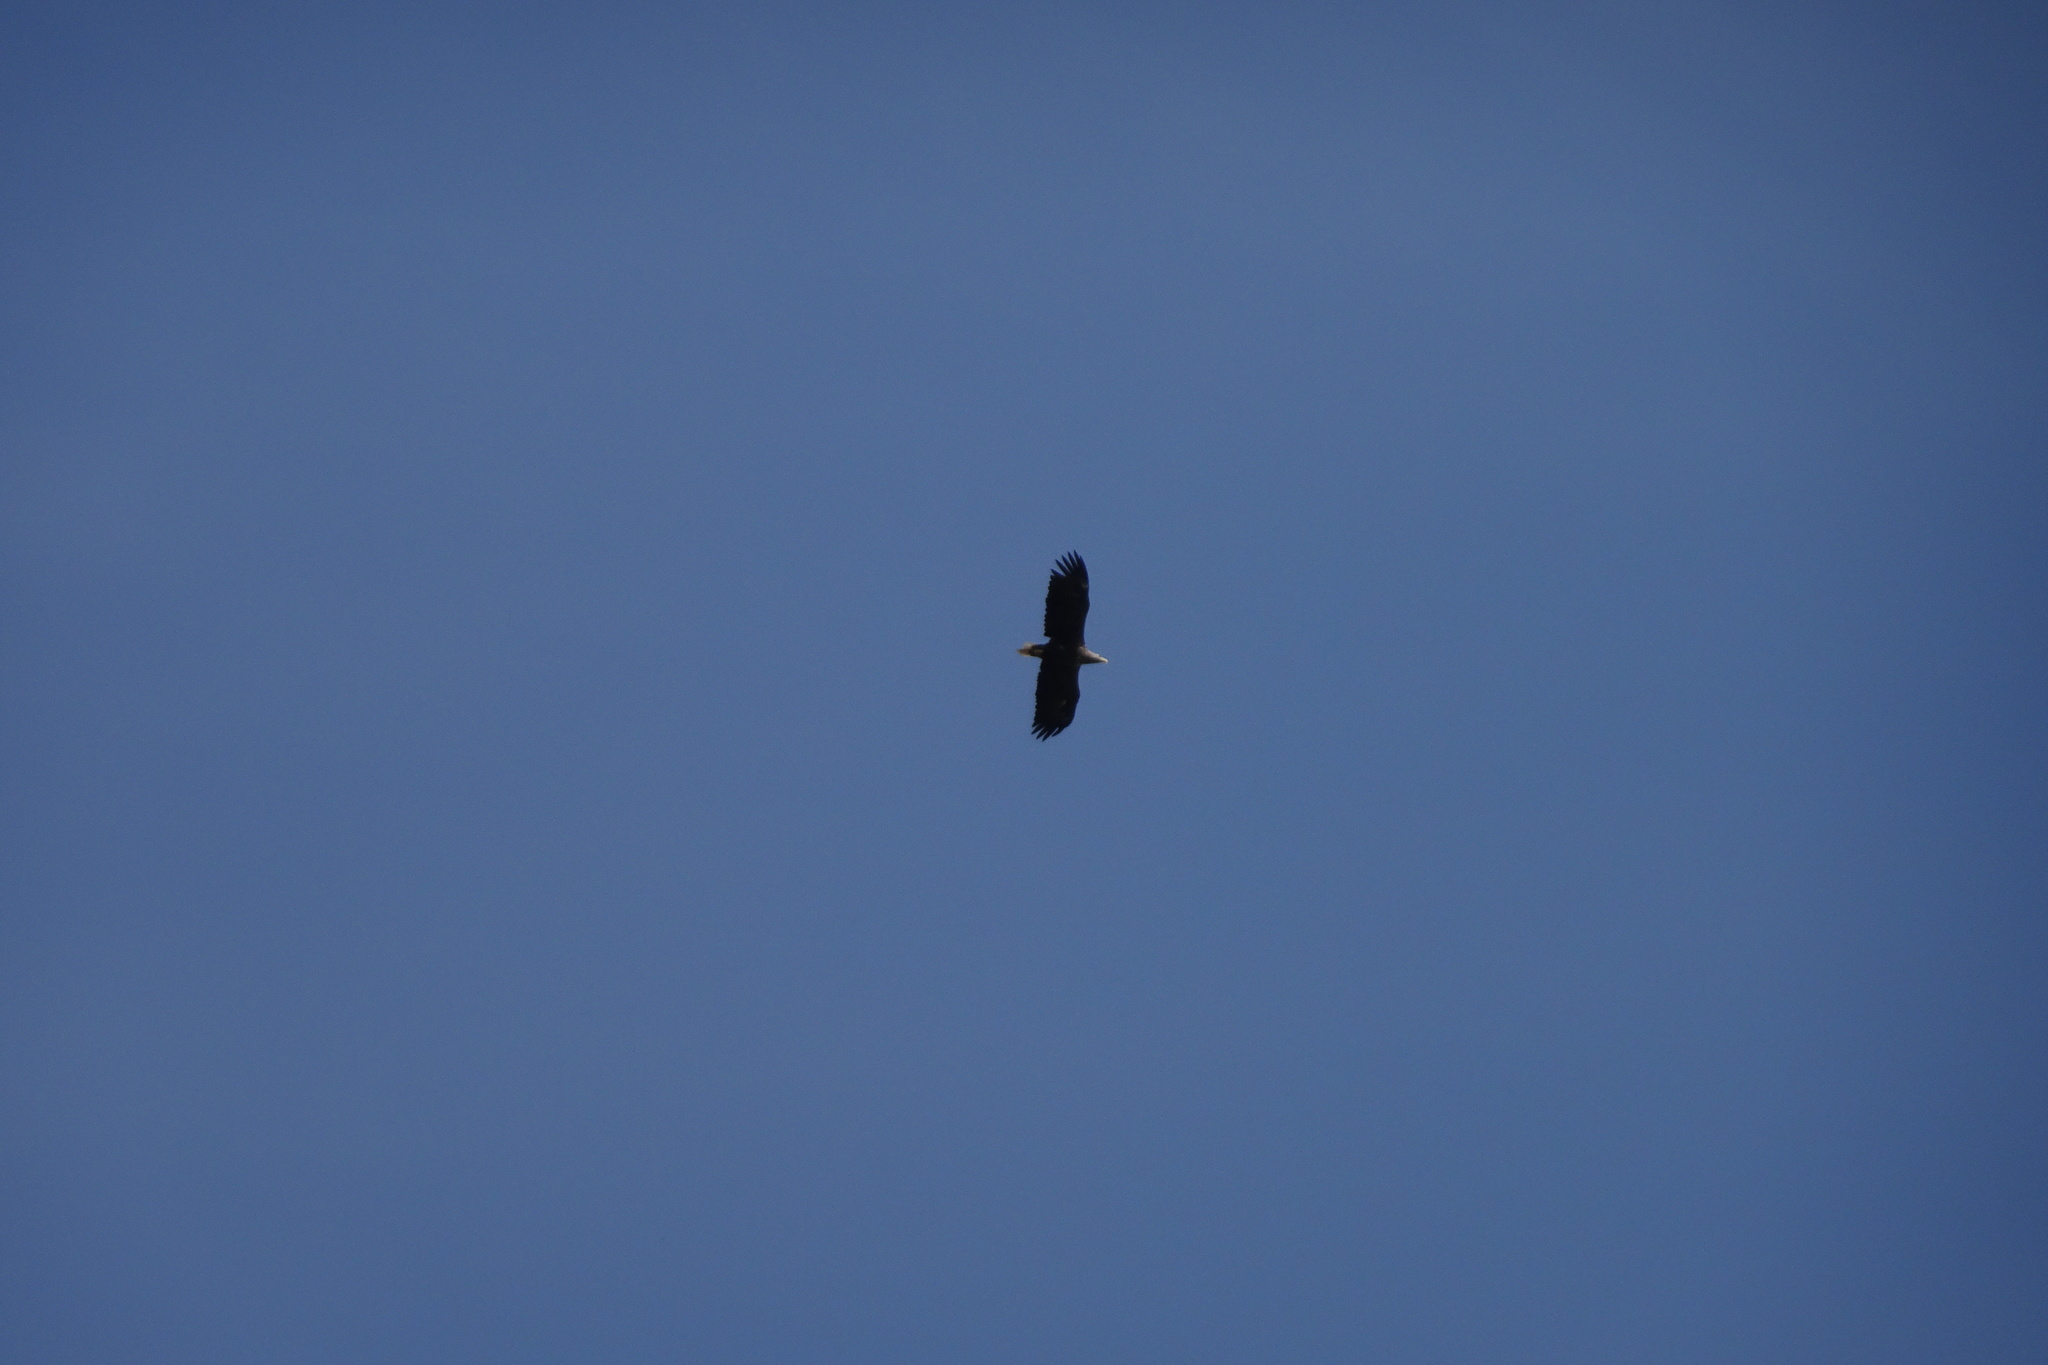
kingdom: Animalia
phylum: Chordata
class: Aves
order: Accipitriformes
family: Accipitridae
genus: Haliaeetus
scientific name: Haliaeetus albicilla
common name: White-tailed eagle
